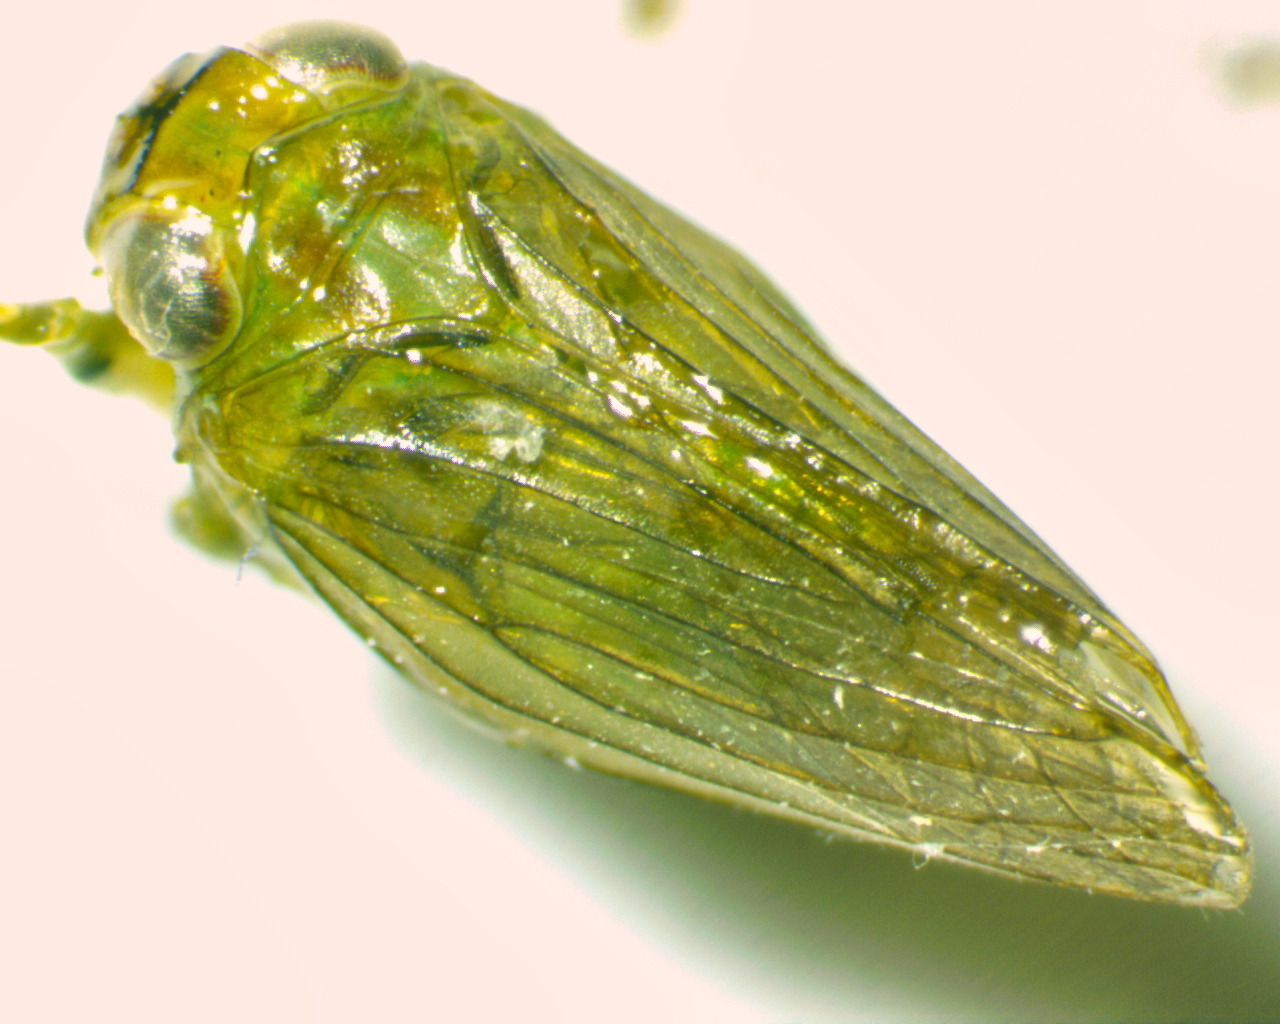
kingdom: Animalia
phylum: Arthropoda
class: Insecta
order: Hemiptera
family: Issidae
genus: Aplos
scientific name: Aplos simplex
